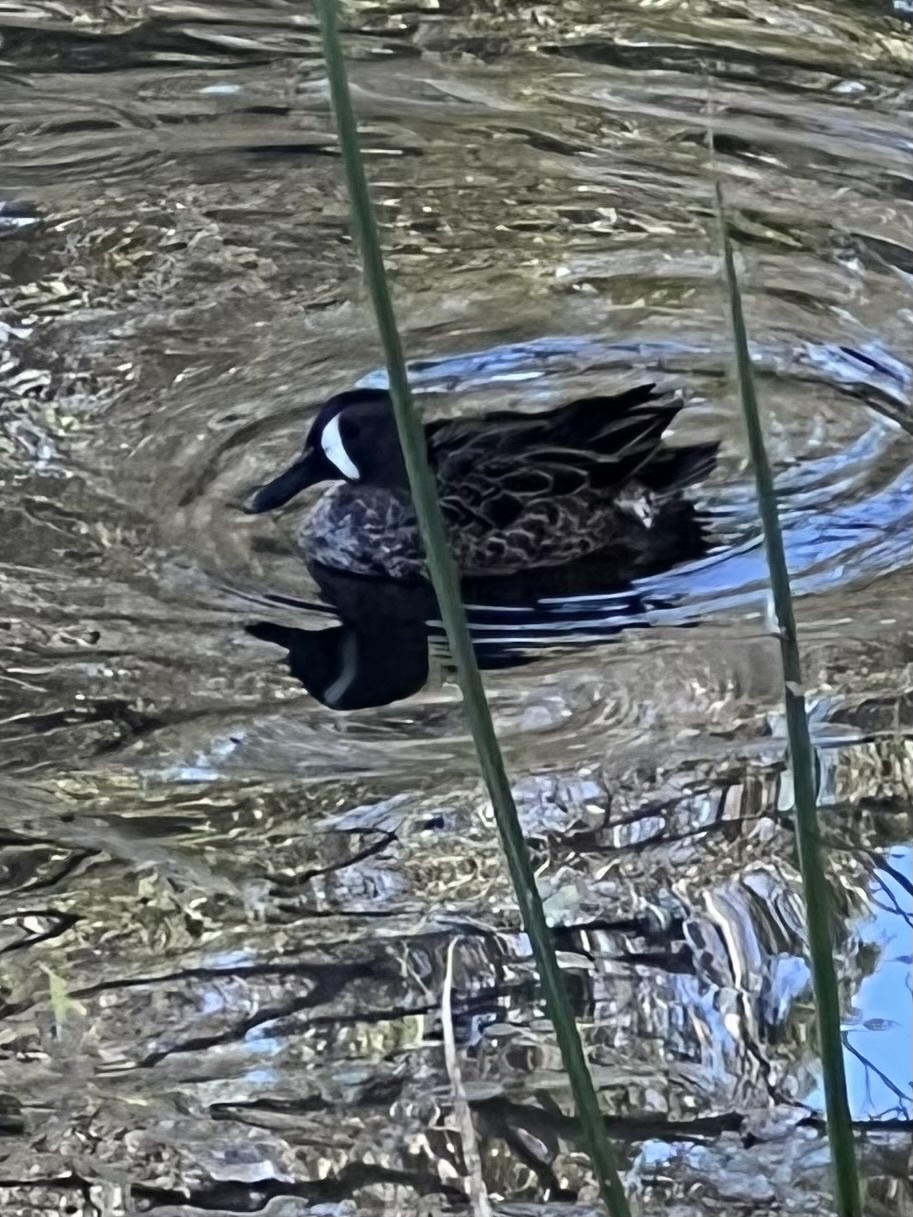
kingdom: Animalia
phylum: Chordata
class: Aves
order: Anseriformes
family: Anatidae
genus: Spatula
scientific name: Spatula discors
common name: Blue-winged teal
